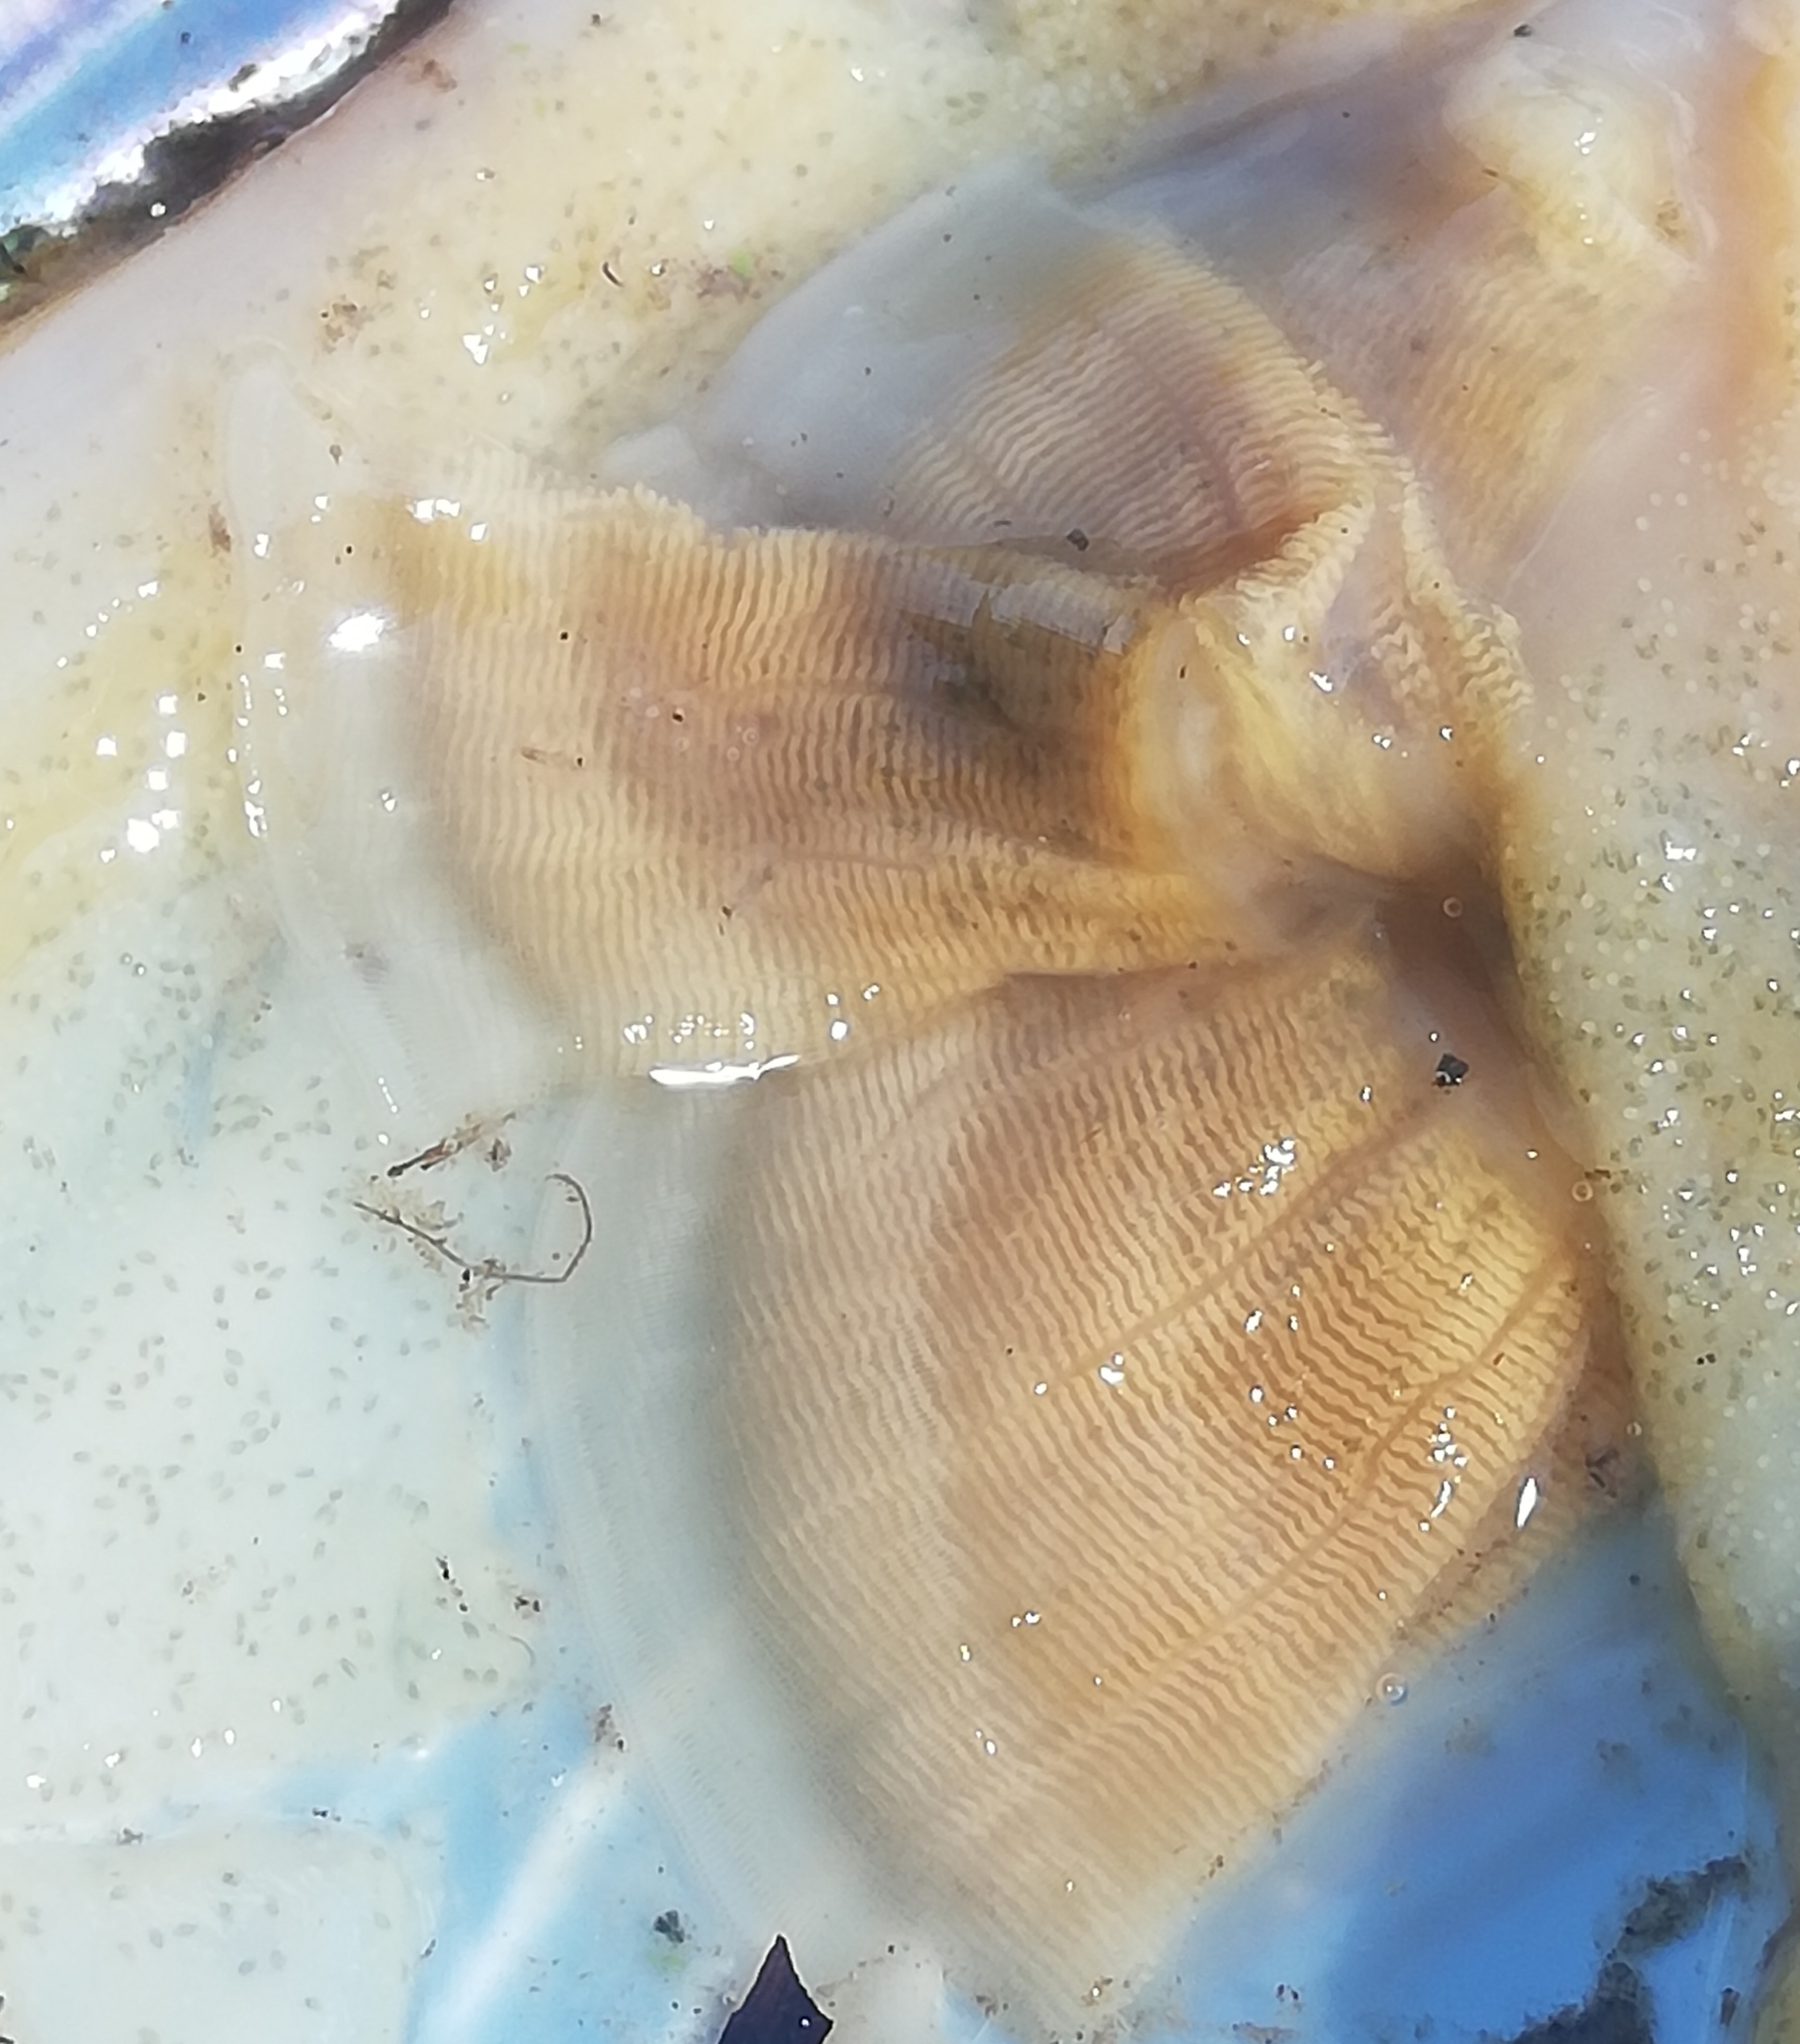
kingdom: Animalia
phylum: Mollusca
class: Bivalvia
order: Unionida
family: Unionidae
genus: Anodonta
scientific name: Anodonta anatina
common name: Duck mussel
